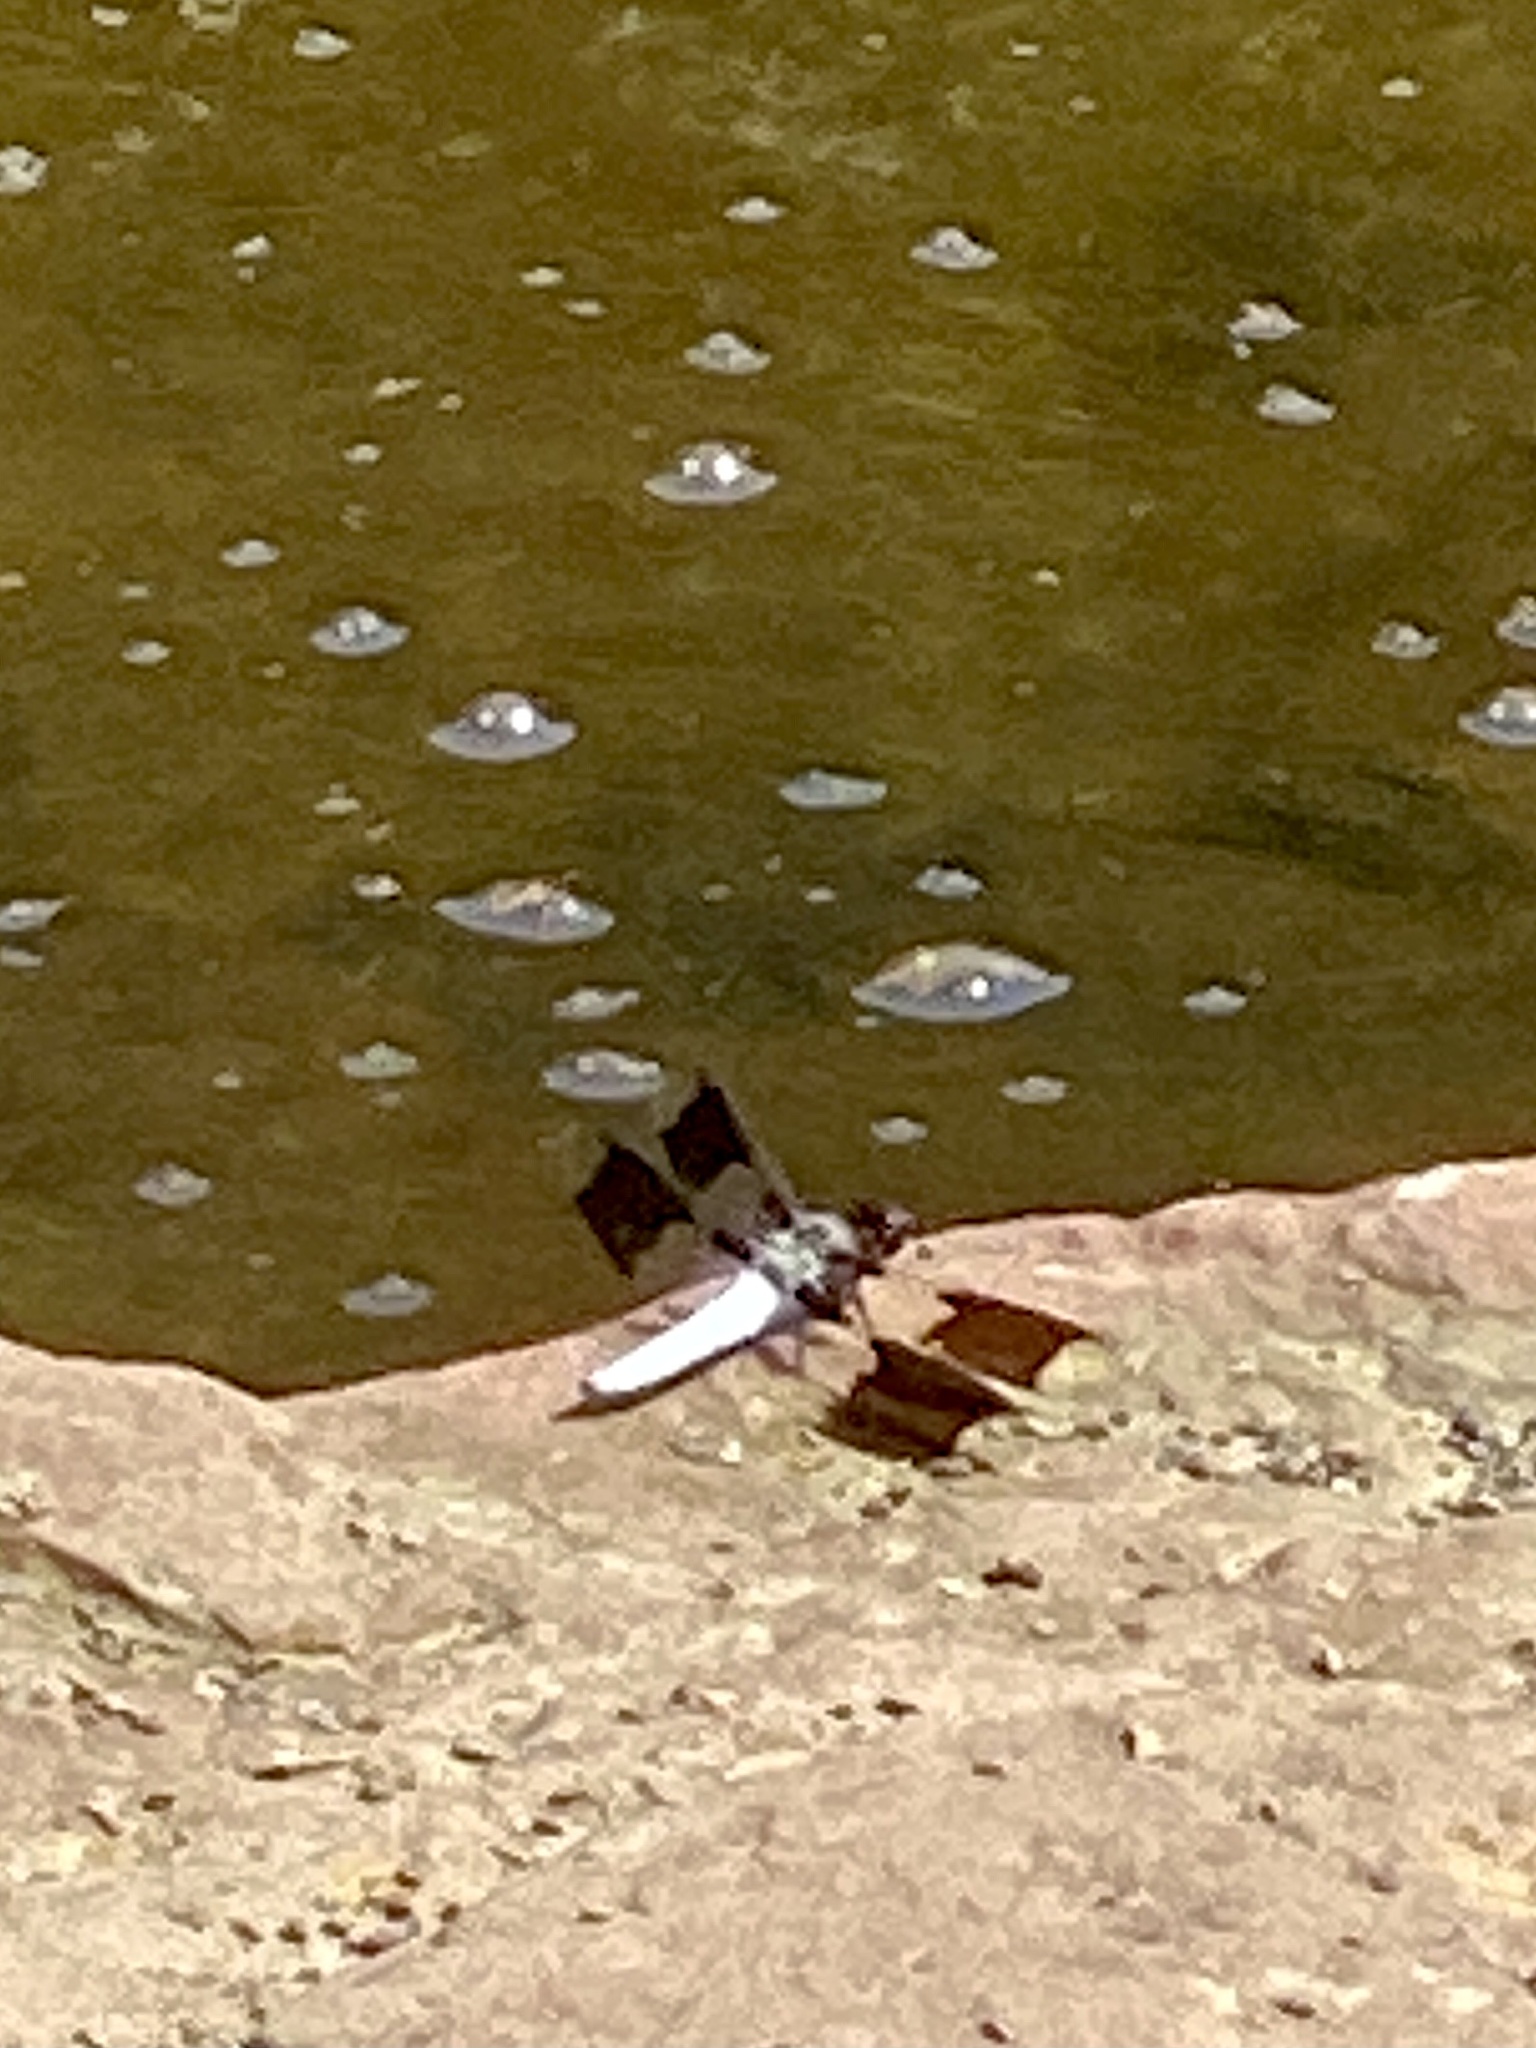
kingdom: Animalia
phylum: Arthropoda
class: Insecta
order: Odonata
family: Libellulidae
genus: Plathemis
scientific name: Plathemis lydia
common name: Common whitetail
